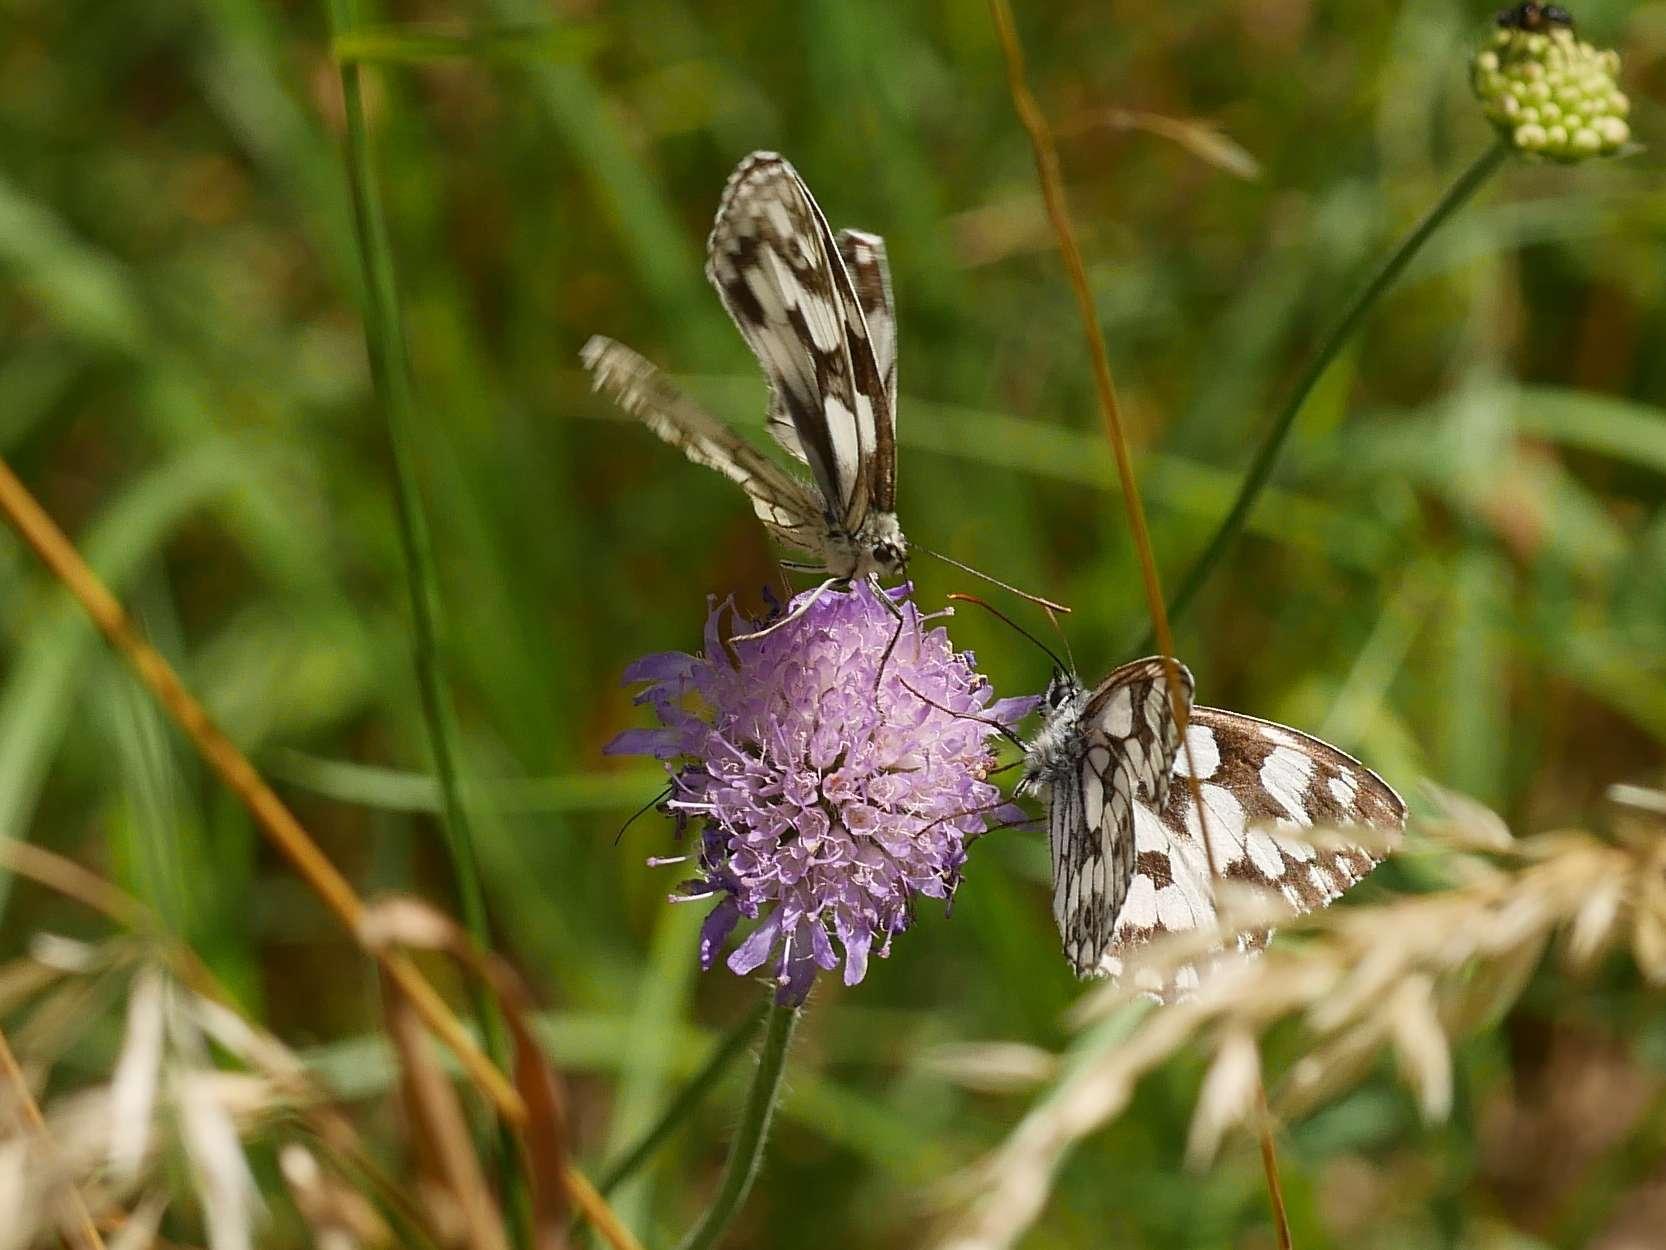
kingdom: Animalia
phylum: Arthropoda
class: Insecta
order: Lepidoptera
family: Nymphalidae
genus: Melanargia
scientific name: Melanargia galathea
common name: Marbled white
